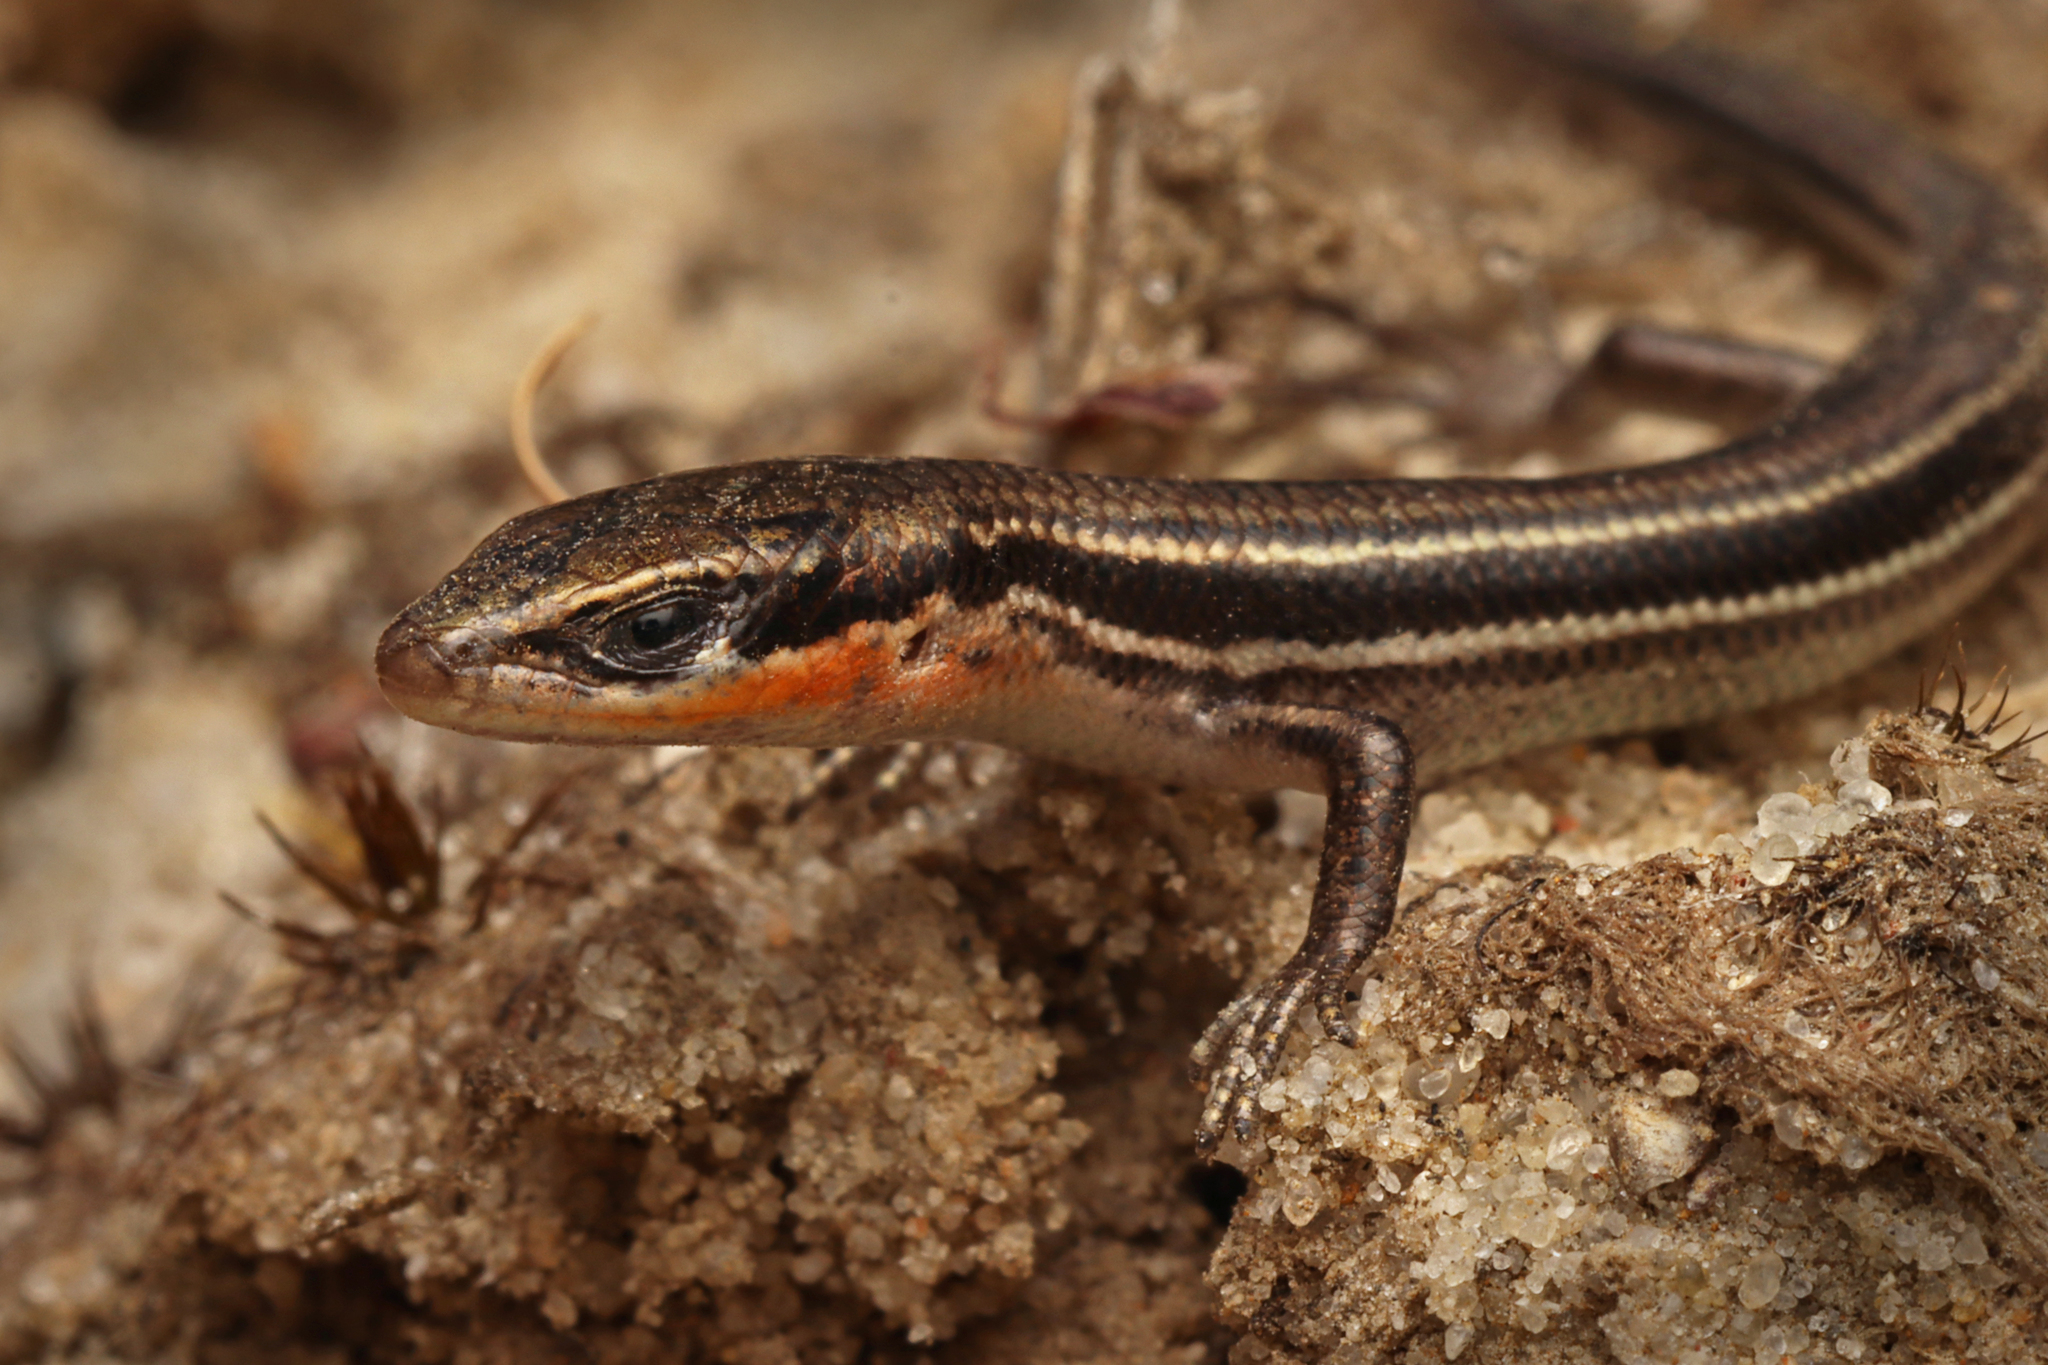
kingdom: Animalia
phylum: Chordata
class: Squamata
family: Scincidae
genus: Acritoscincus
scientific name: Acritoscincus duperreyi
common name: Bold-striped cool-skink
